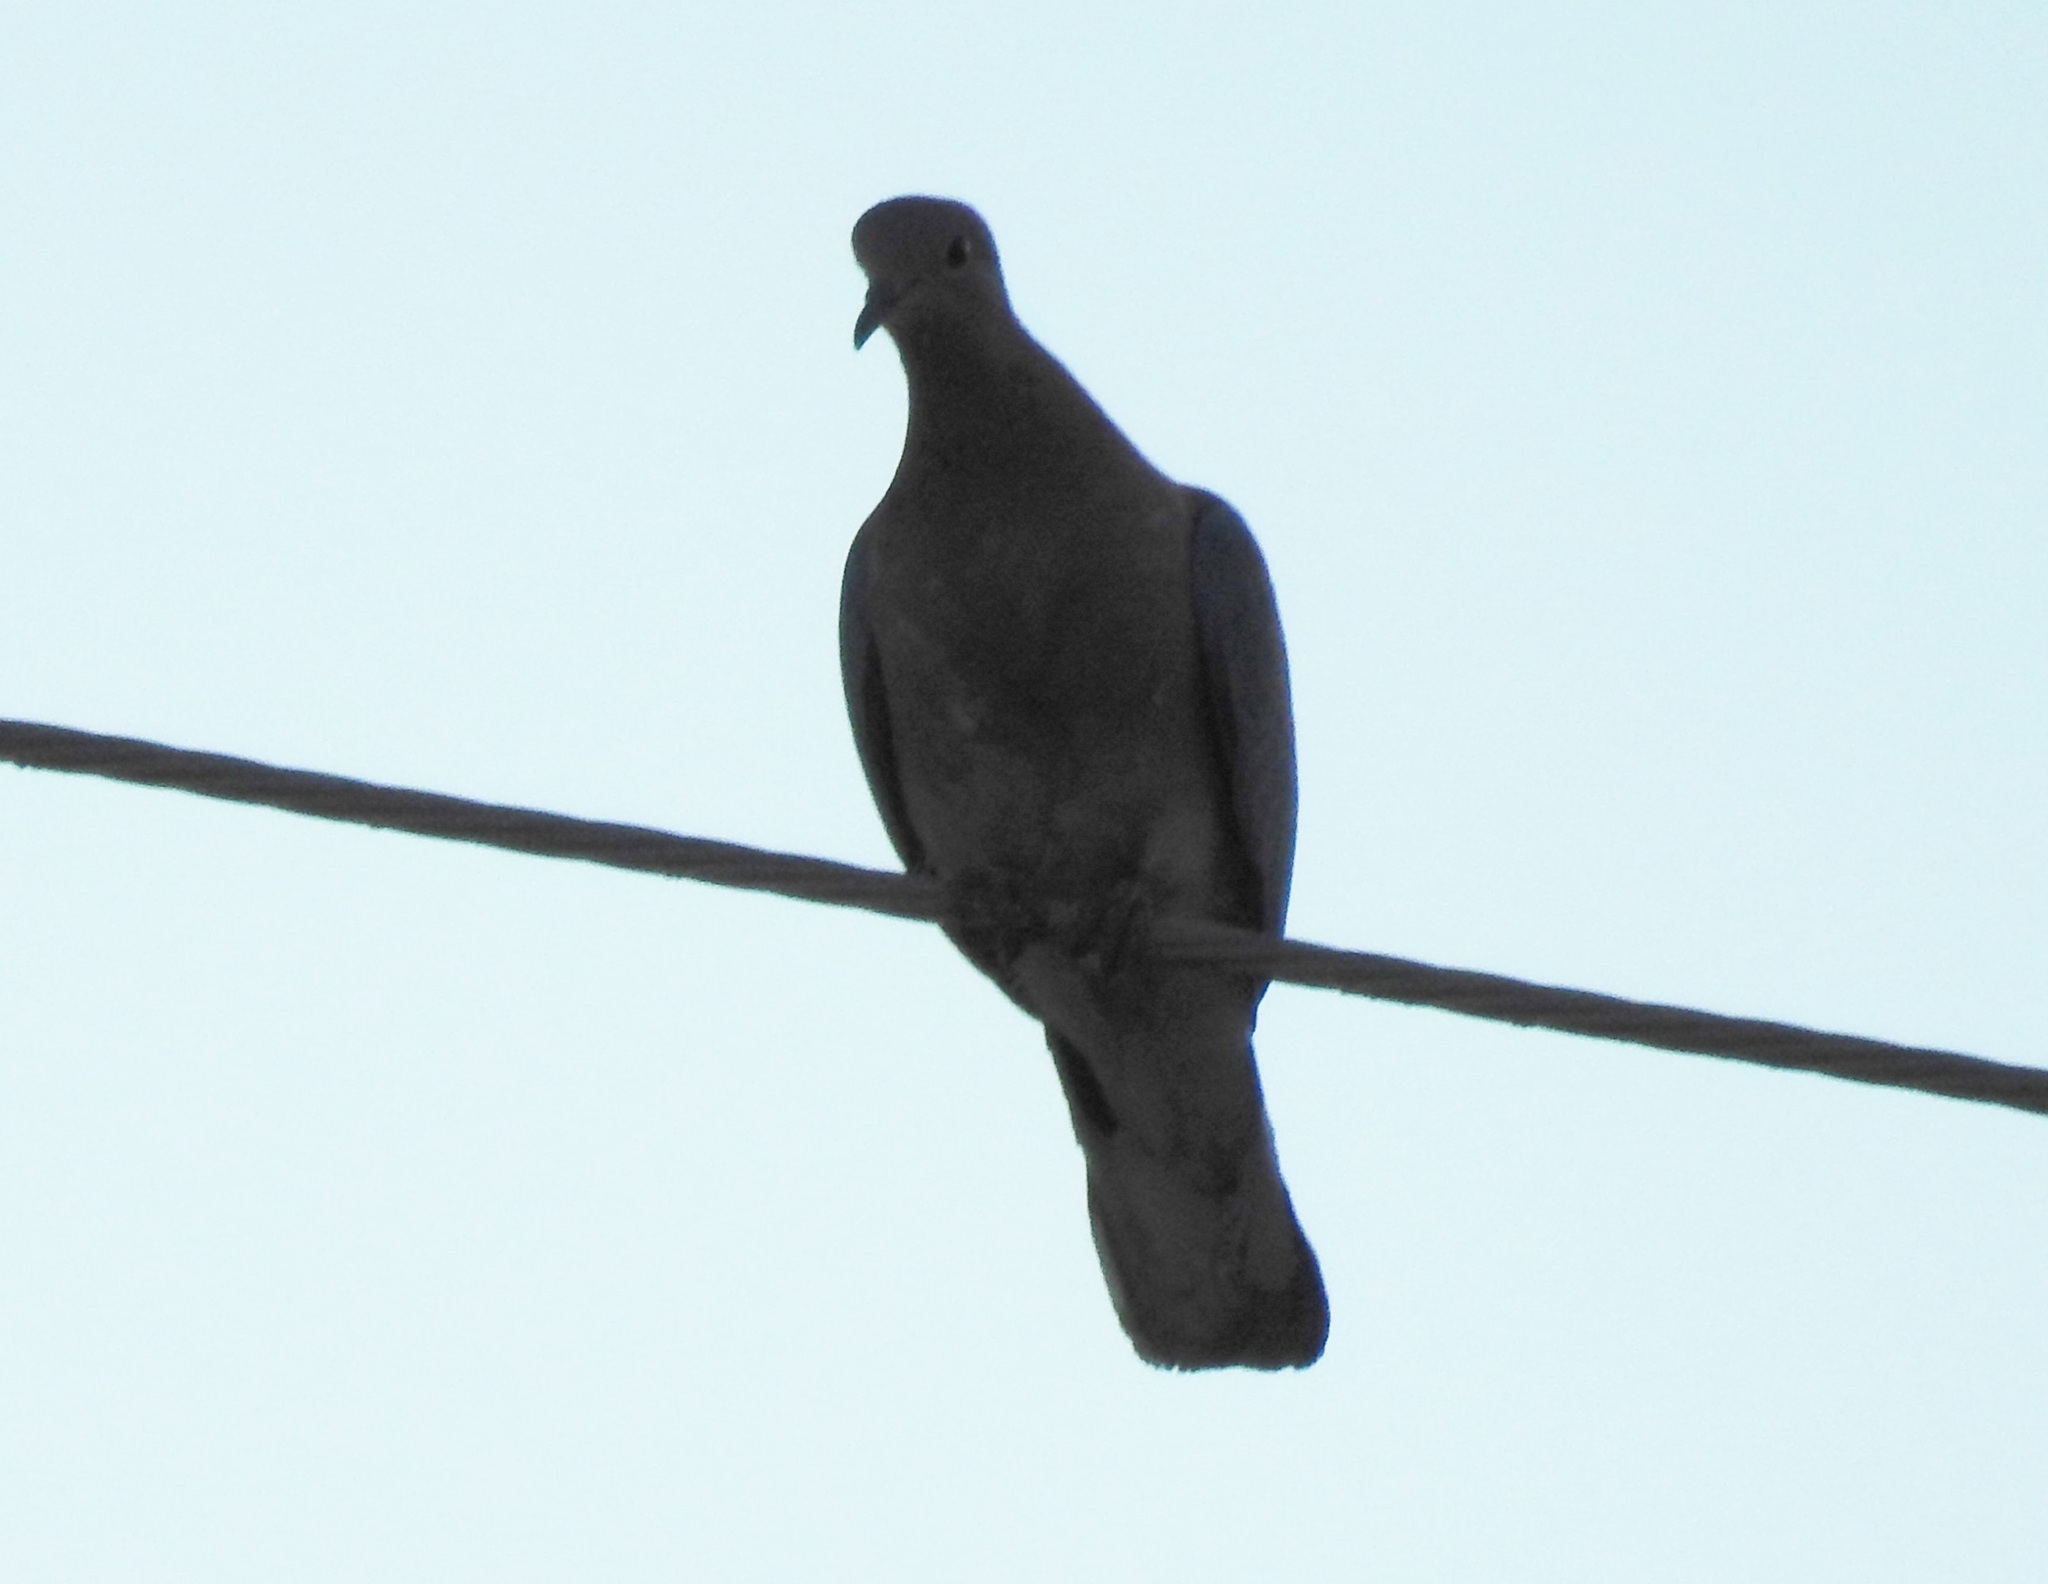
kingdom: Animalia
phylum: Chordata
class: Aves
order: Columbiformes
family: Columbidae
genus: Streptopelia
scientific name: Streptopelia decaocto
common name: Eurasian collared dove
